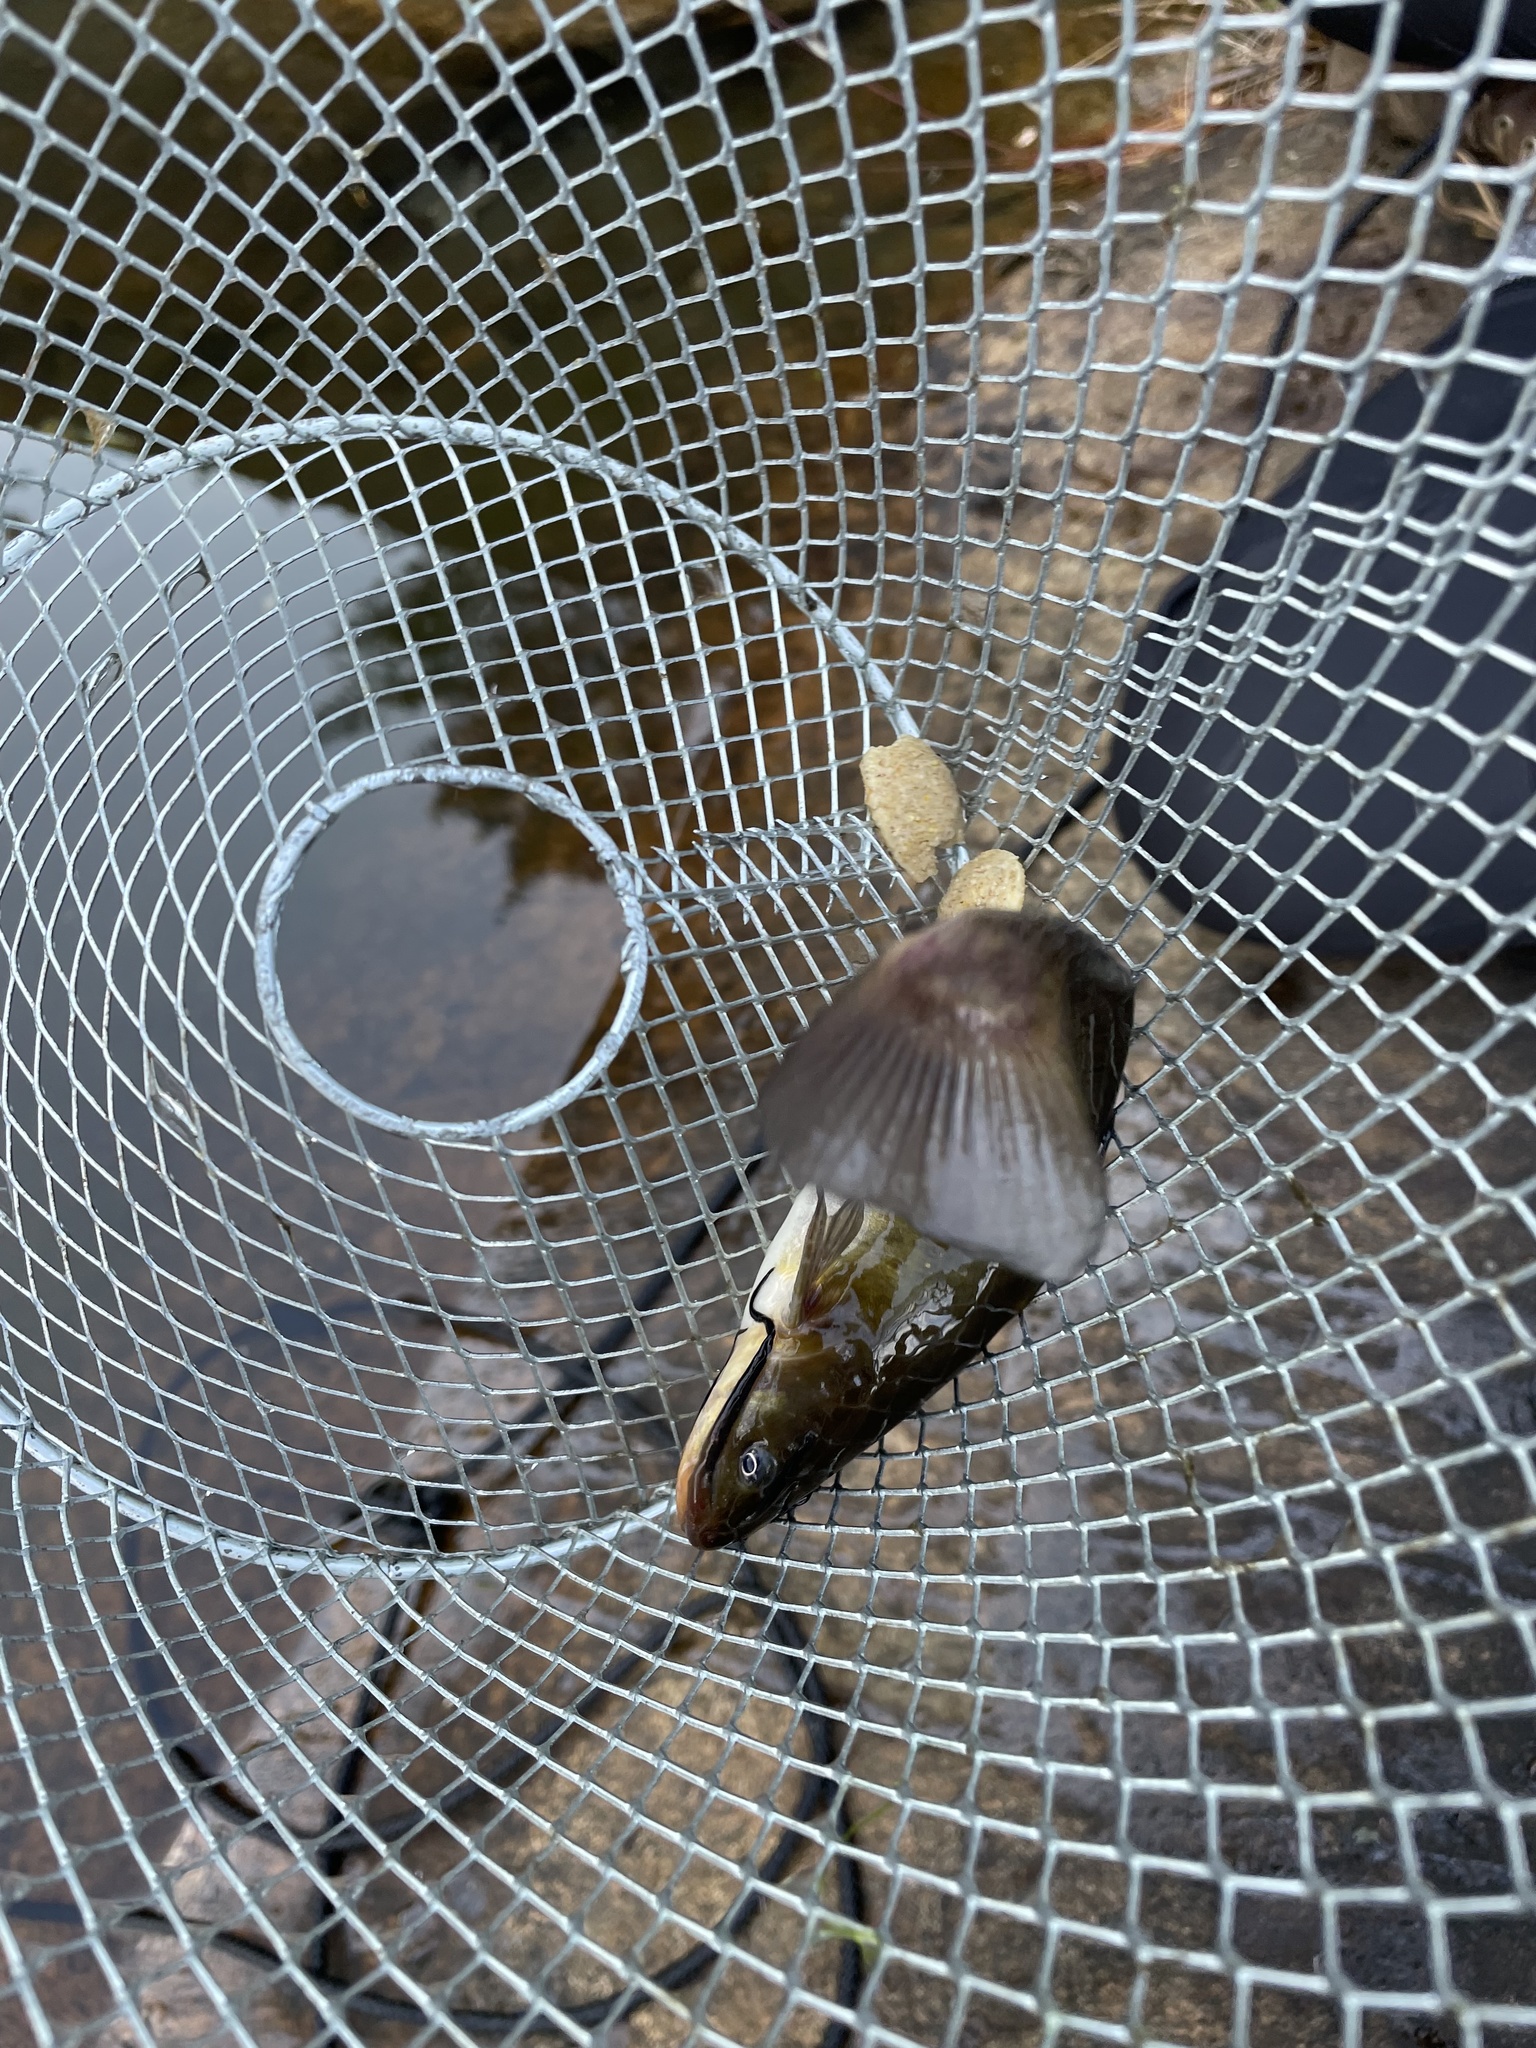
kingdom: Animalia
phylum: Chordata
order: Siluriformes
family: Ictaluridae
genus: Ameiurus
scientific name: Ameiurus nebulosus
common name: Brown bullhead
